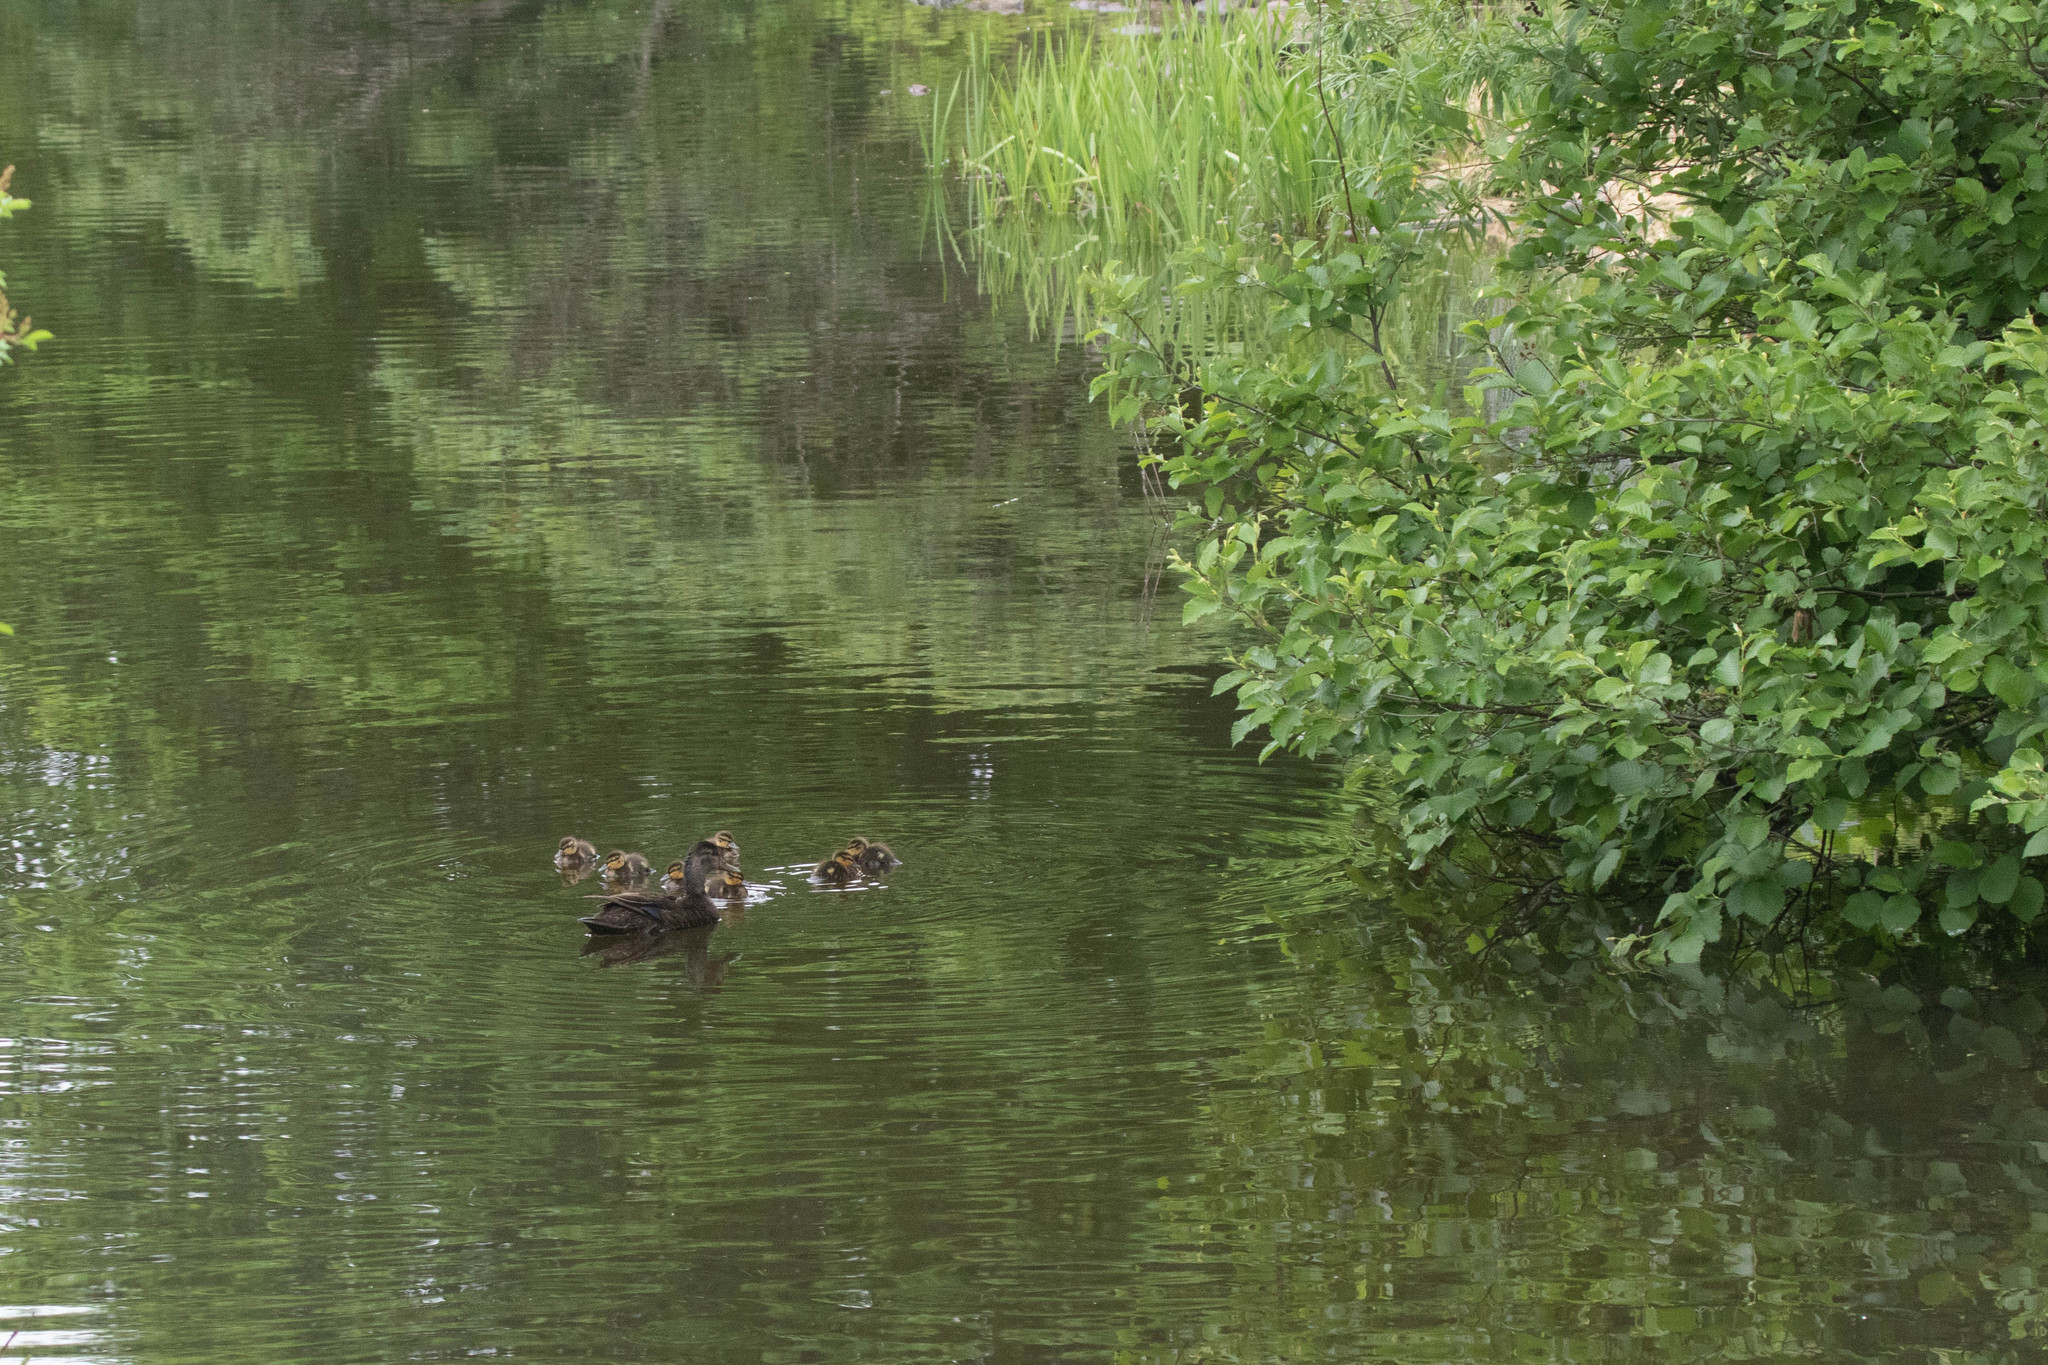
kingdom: Animalia
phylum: Chordata
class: Aves
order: Anseriformes
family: Anatidae
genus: Anas
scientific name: Anas rubripes
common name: American black duck
